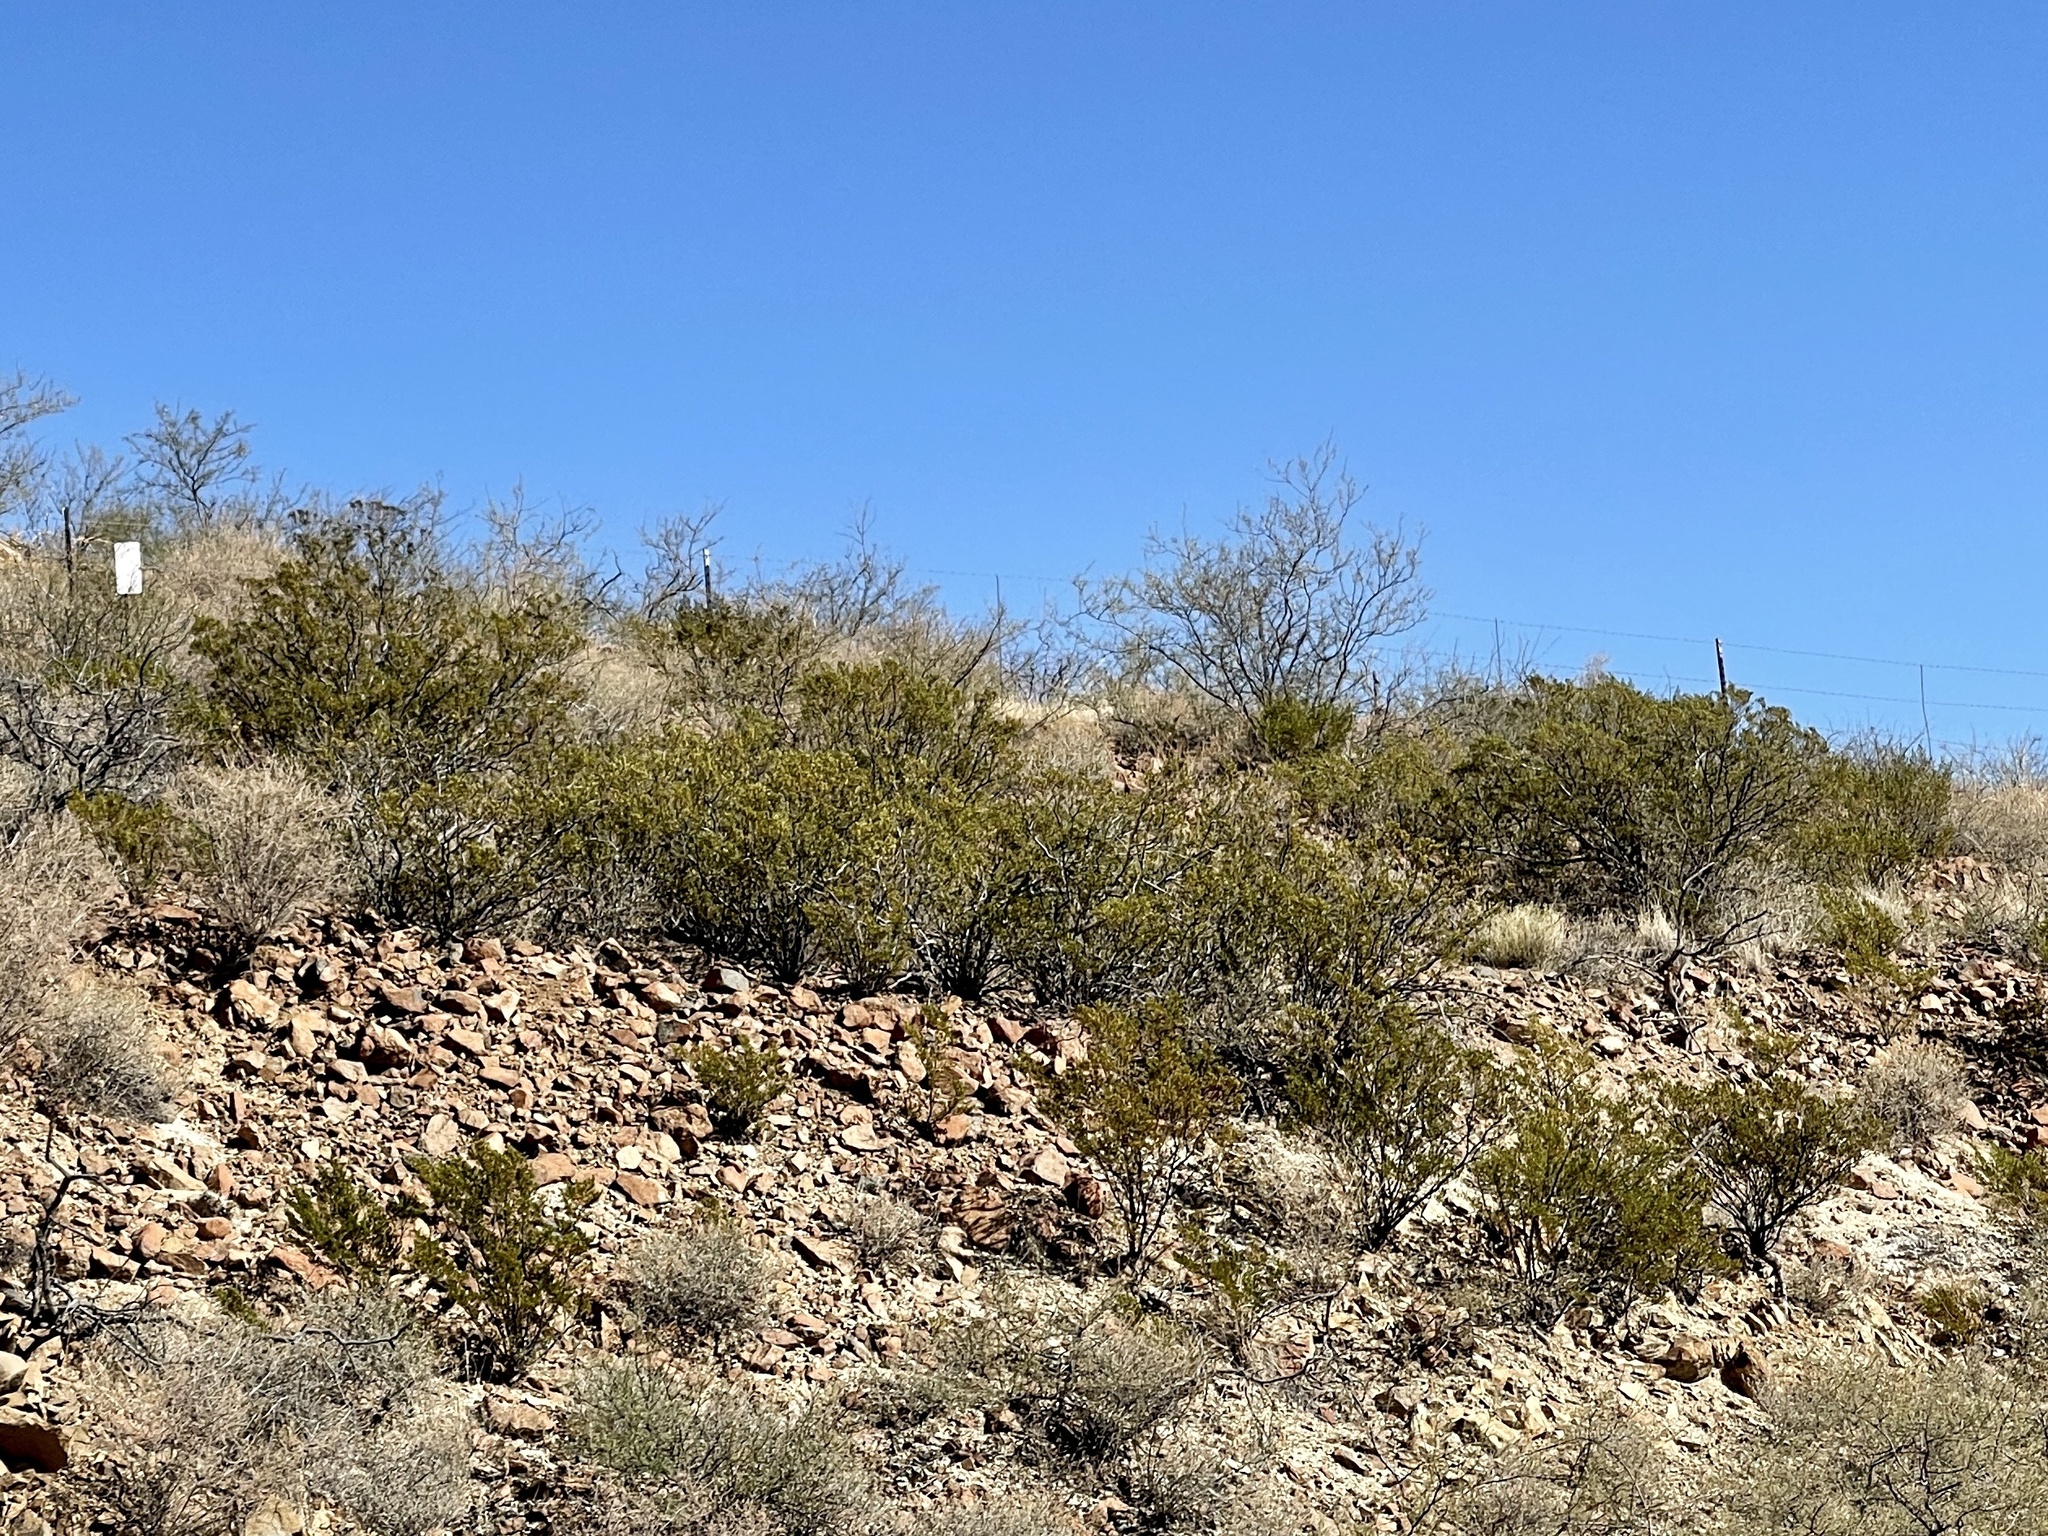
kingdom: Plantae
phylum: Tracheophyta
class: Magnoliopsida
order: Zygophyllales
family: Zygophyllaceae
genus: Larrea
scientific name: Larrea tridentata
